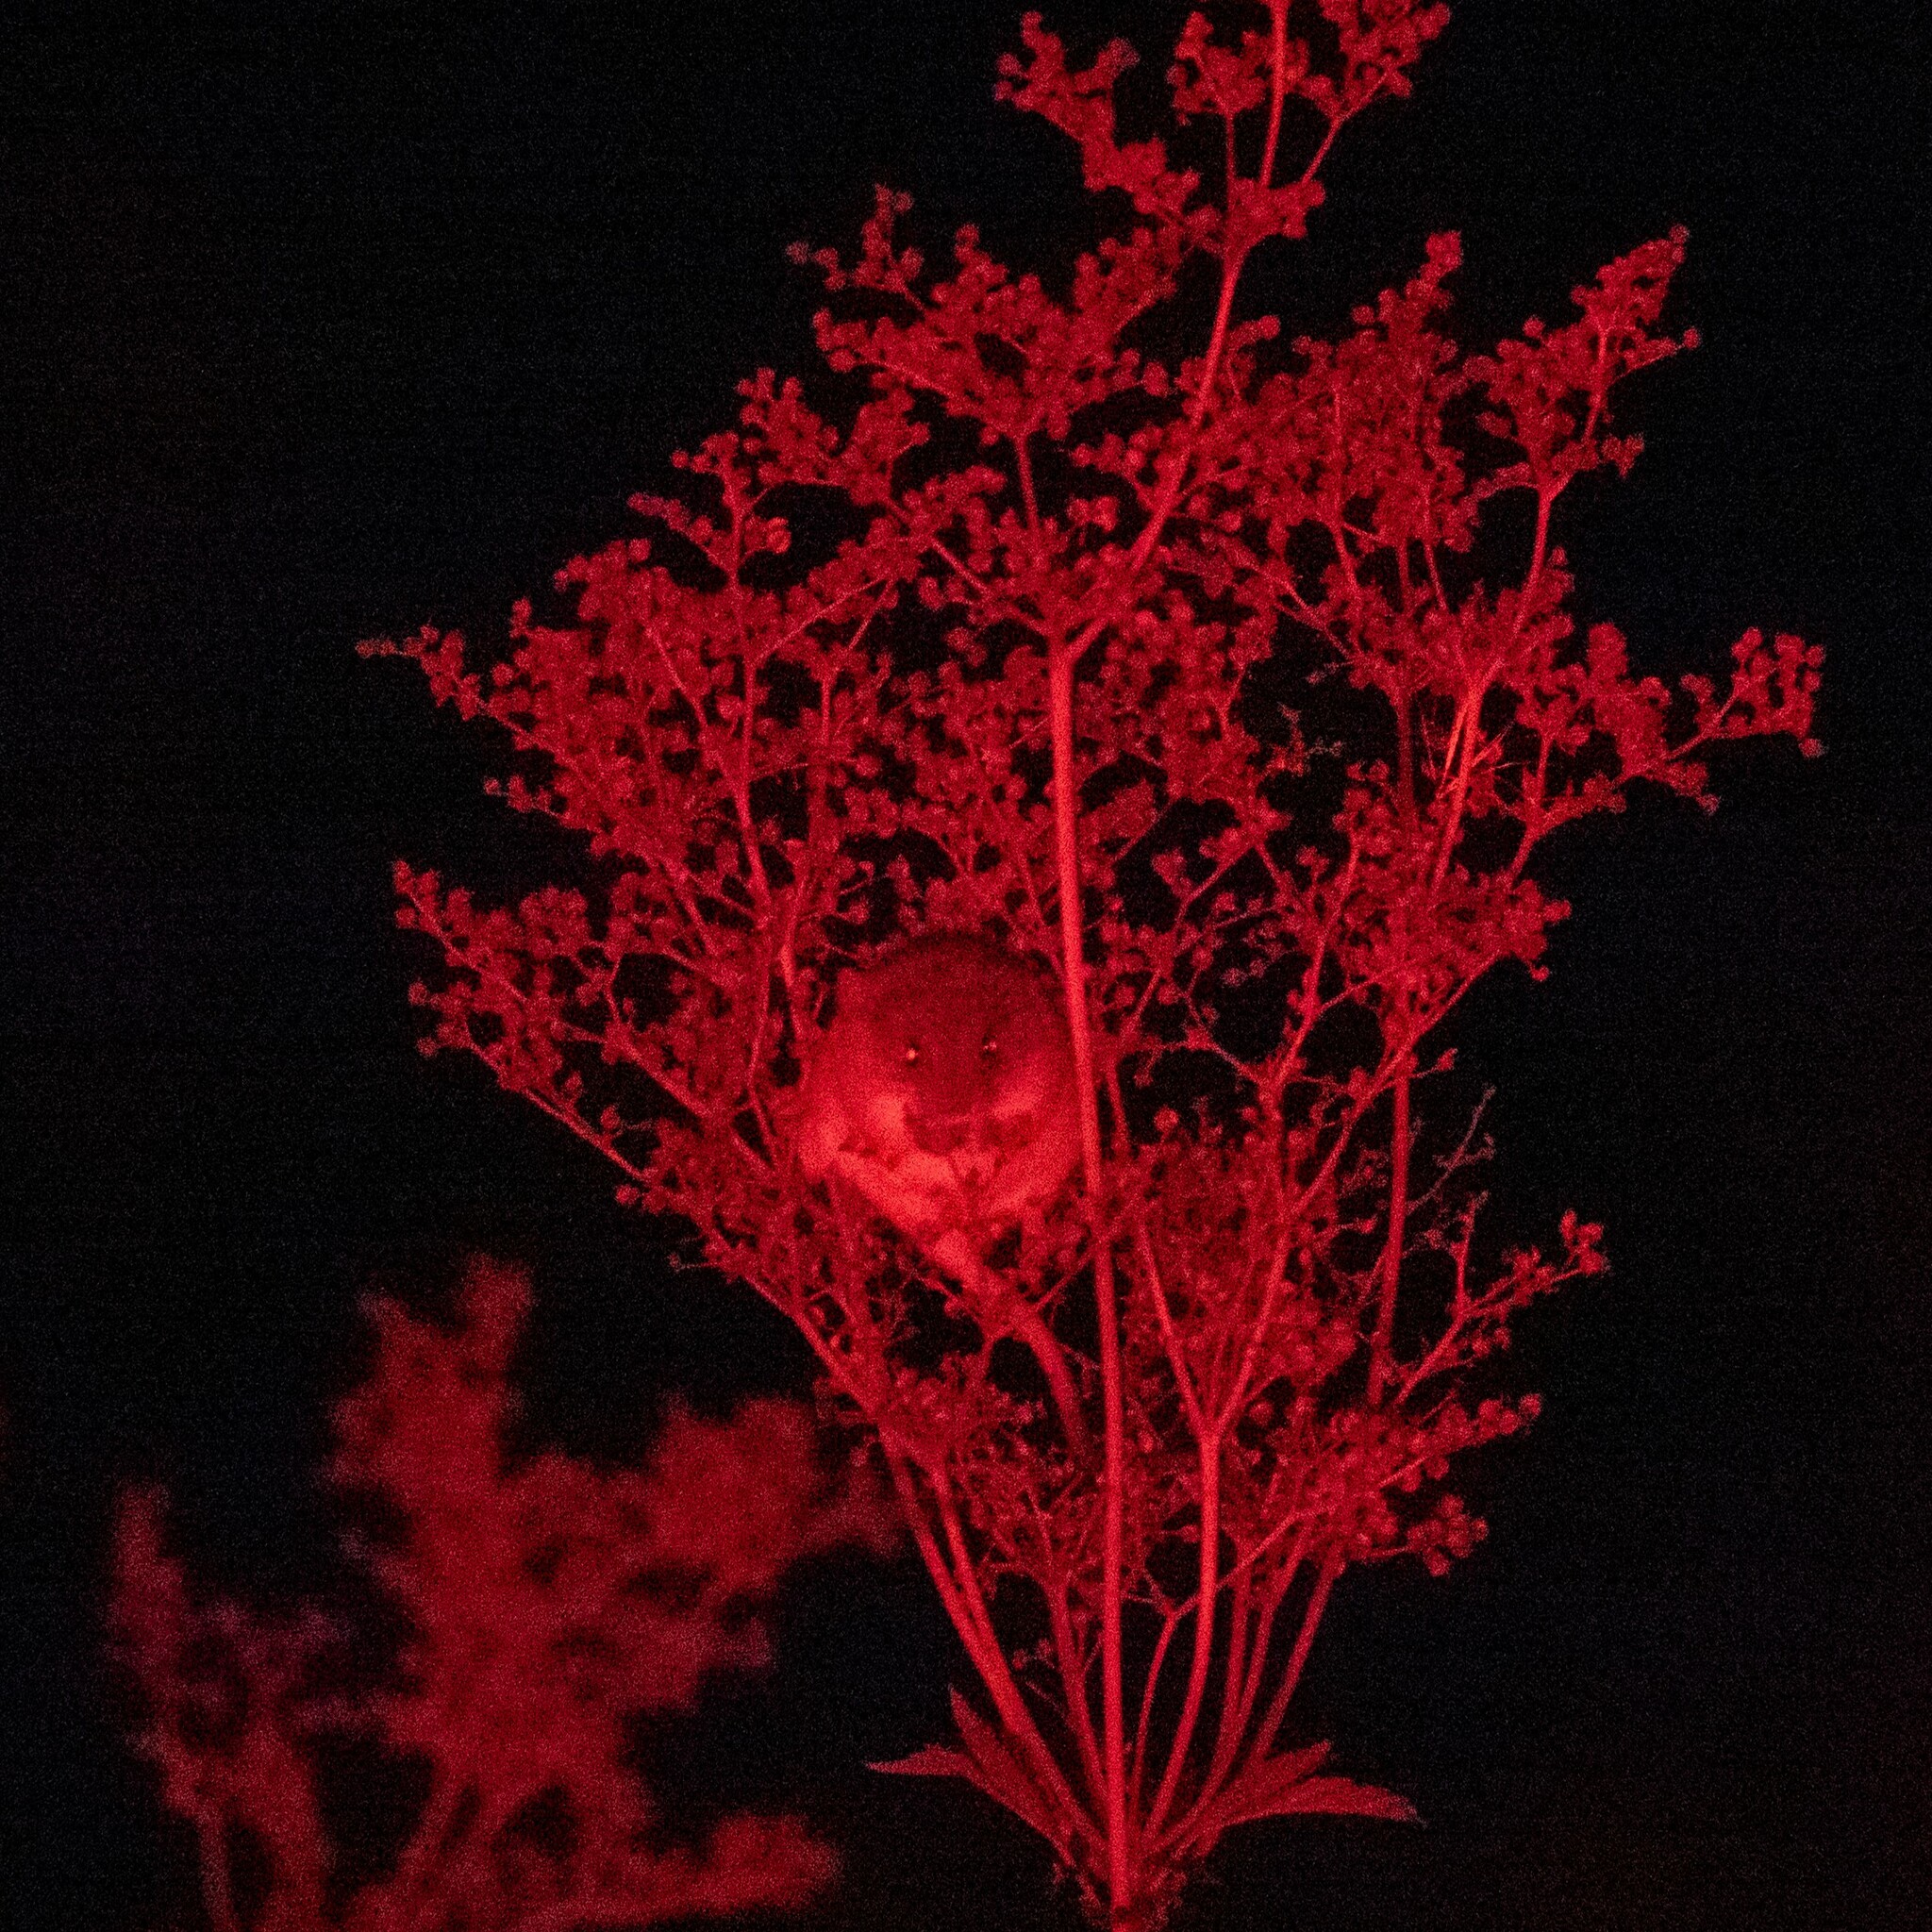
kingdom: Animalia
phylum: Chordata
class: Mammalia
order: Rodentia
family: Muridae
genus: Micromys
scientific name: Micromys minutus
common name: Harvest mouse
